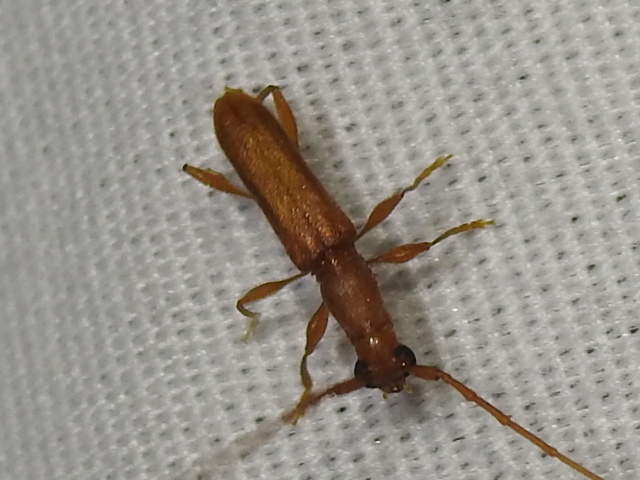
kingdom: Animalia
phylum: Arthropoda
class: Insecta
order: Coleoptera
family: Cerambycidae
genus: Hypexilis
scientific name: Hypexilis pallida
